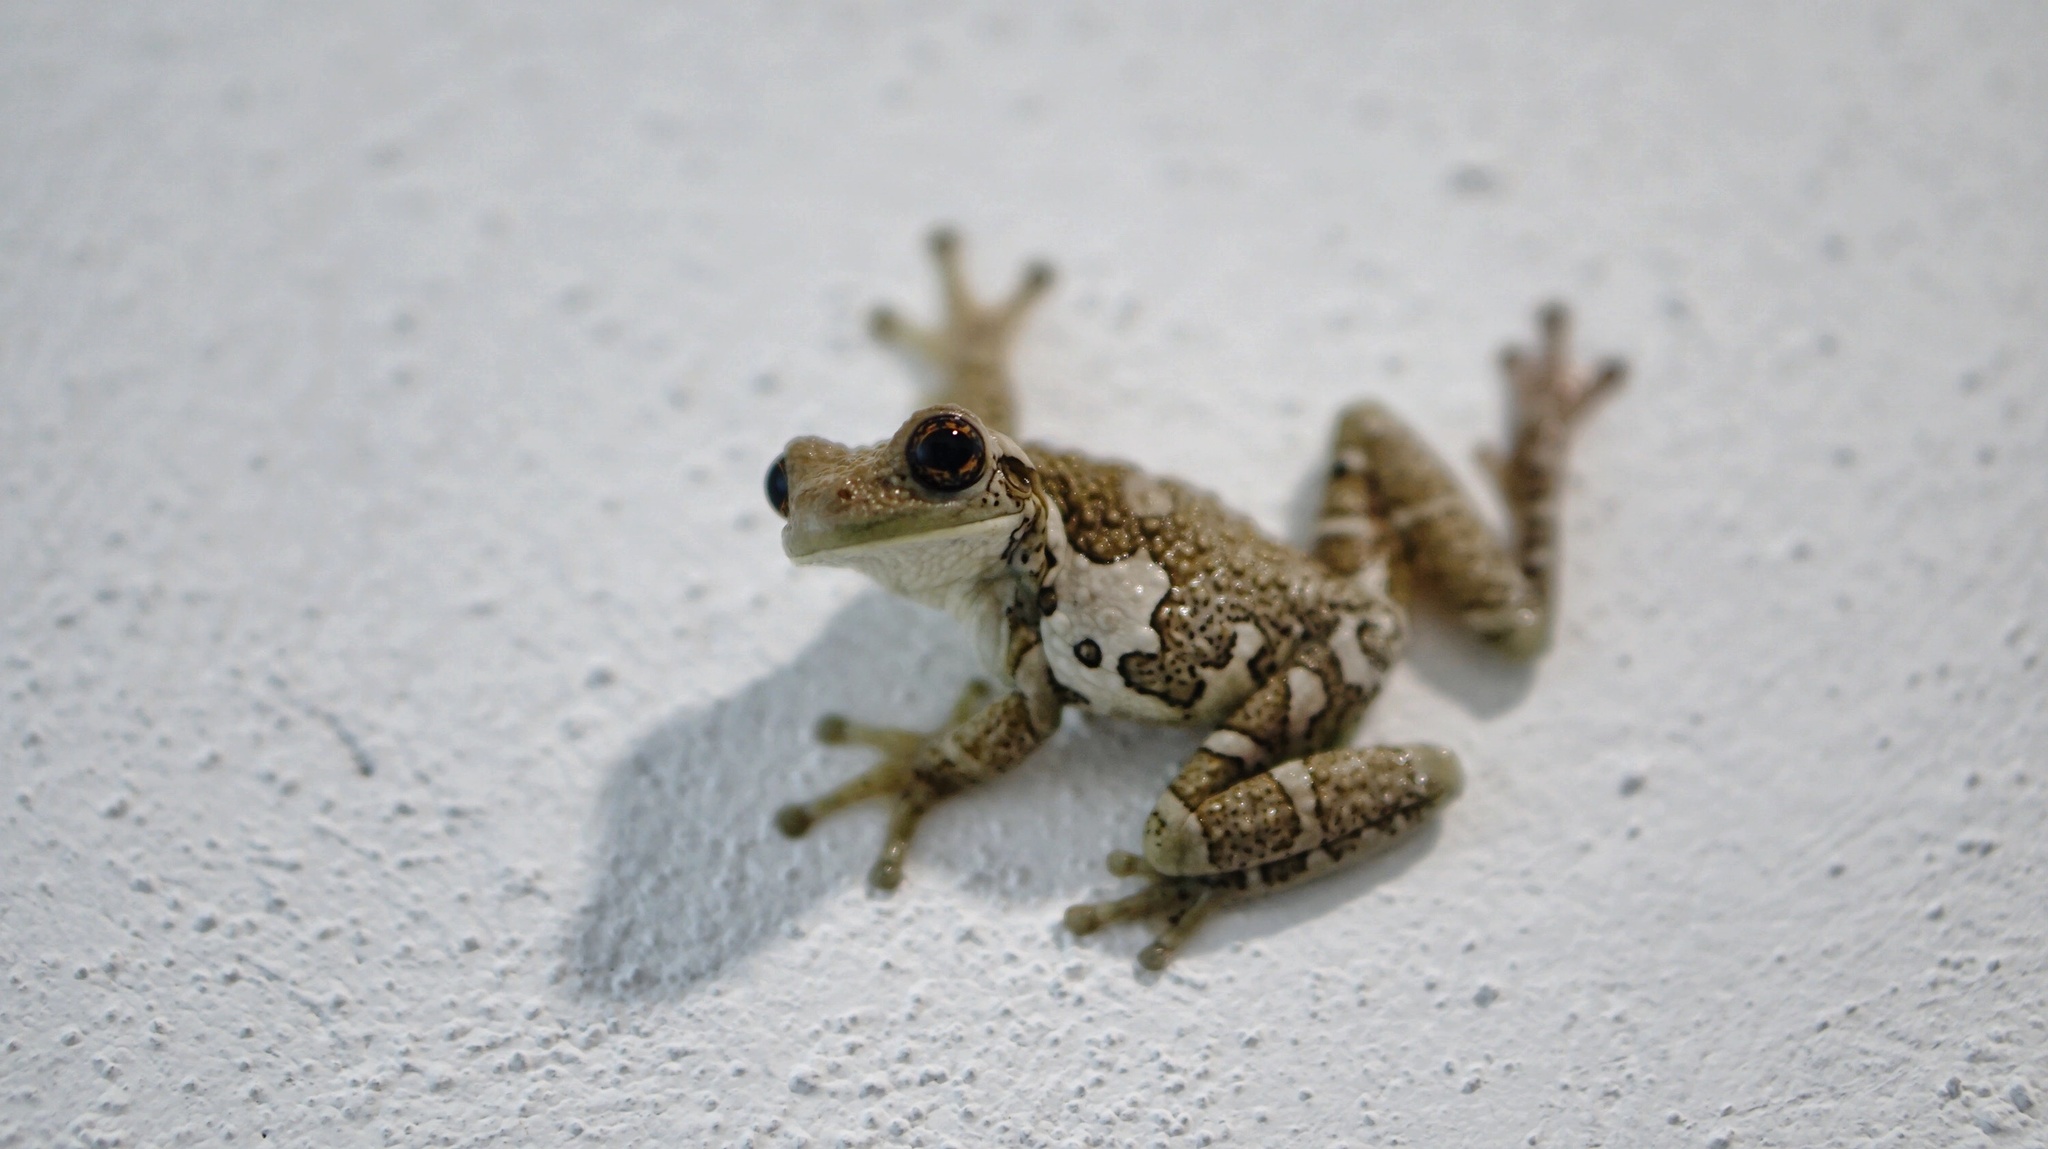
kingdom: Animalia
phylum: Chordata
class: Amphibia
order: Anura
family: Hylidae
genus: Trachycephalus
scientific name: Trachycephalus vermiculatus
